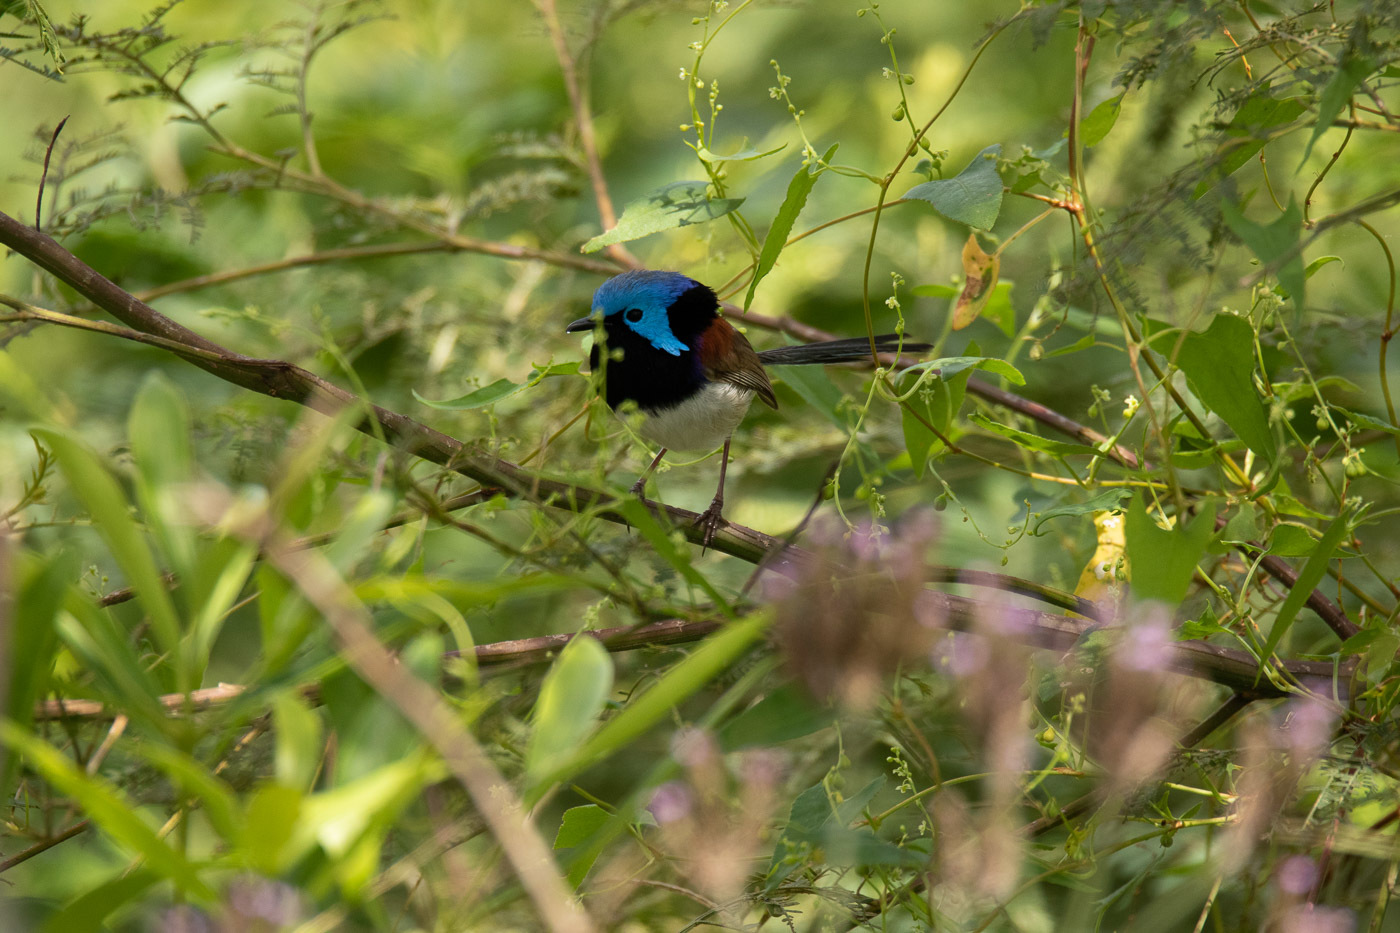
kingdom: Animalia
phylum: Chordata
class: Aves
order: Passeriformes
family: Maluridae
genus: Malurus
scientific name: Malurus lamberti
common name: Variegated fairywren
